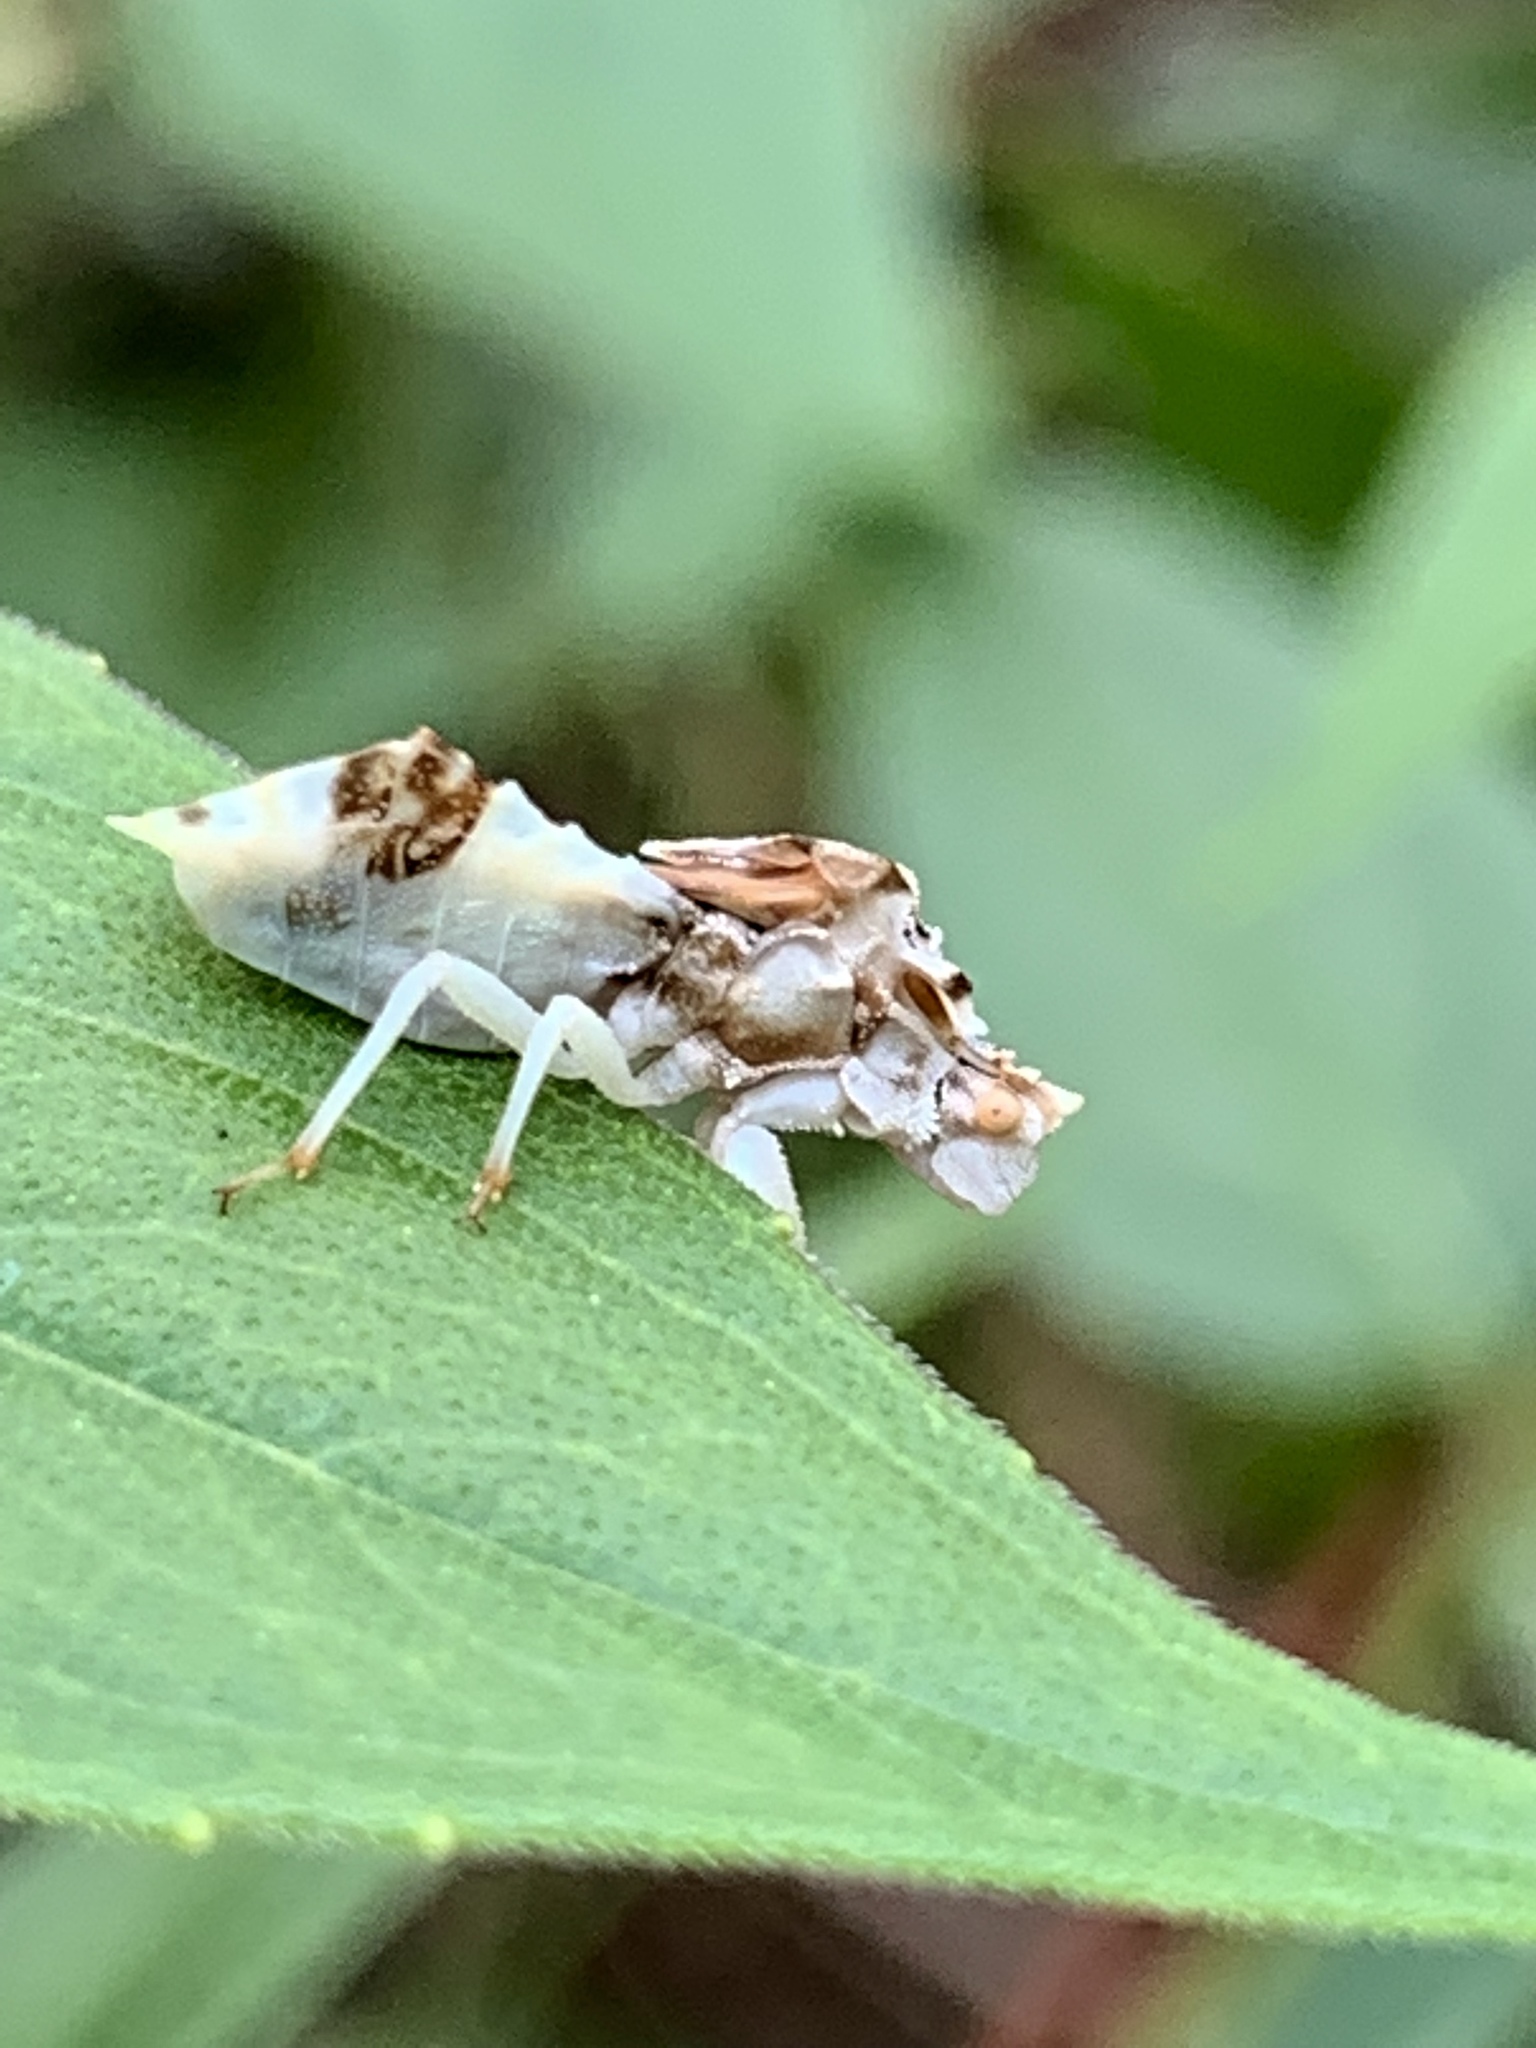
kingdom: Animalia
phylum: Arthropoda
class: Insecta
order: Hemiptera
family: Reduviidae
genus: Phymata
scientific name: Phymata fasciata
